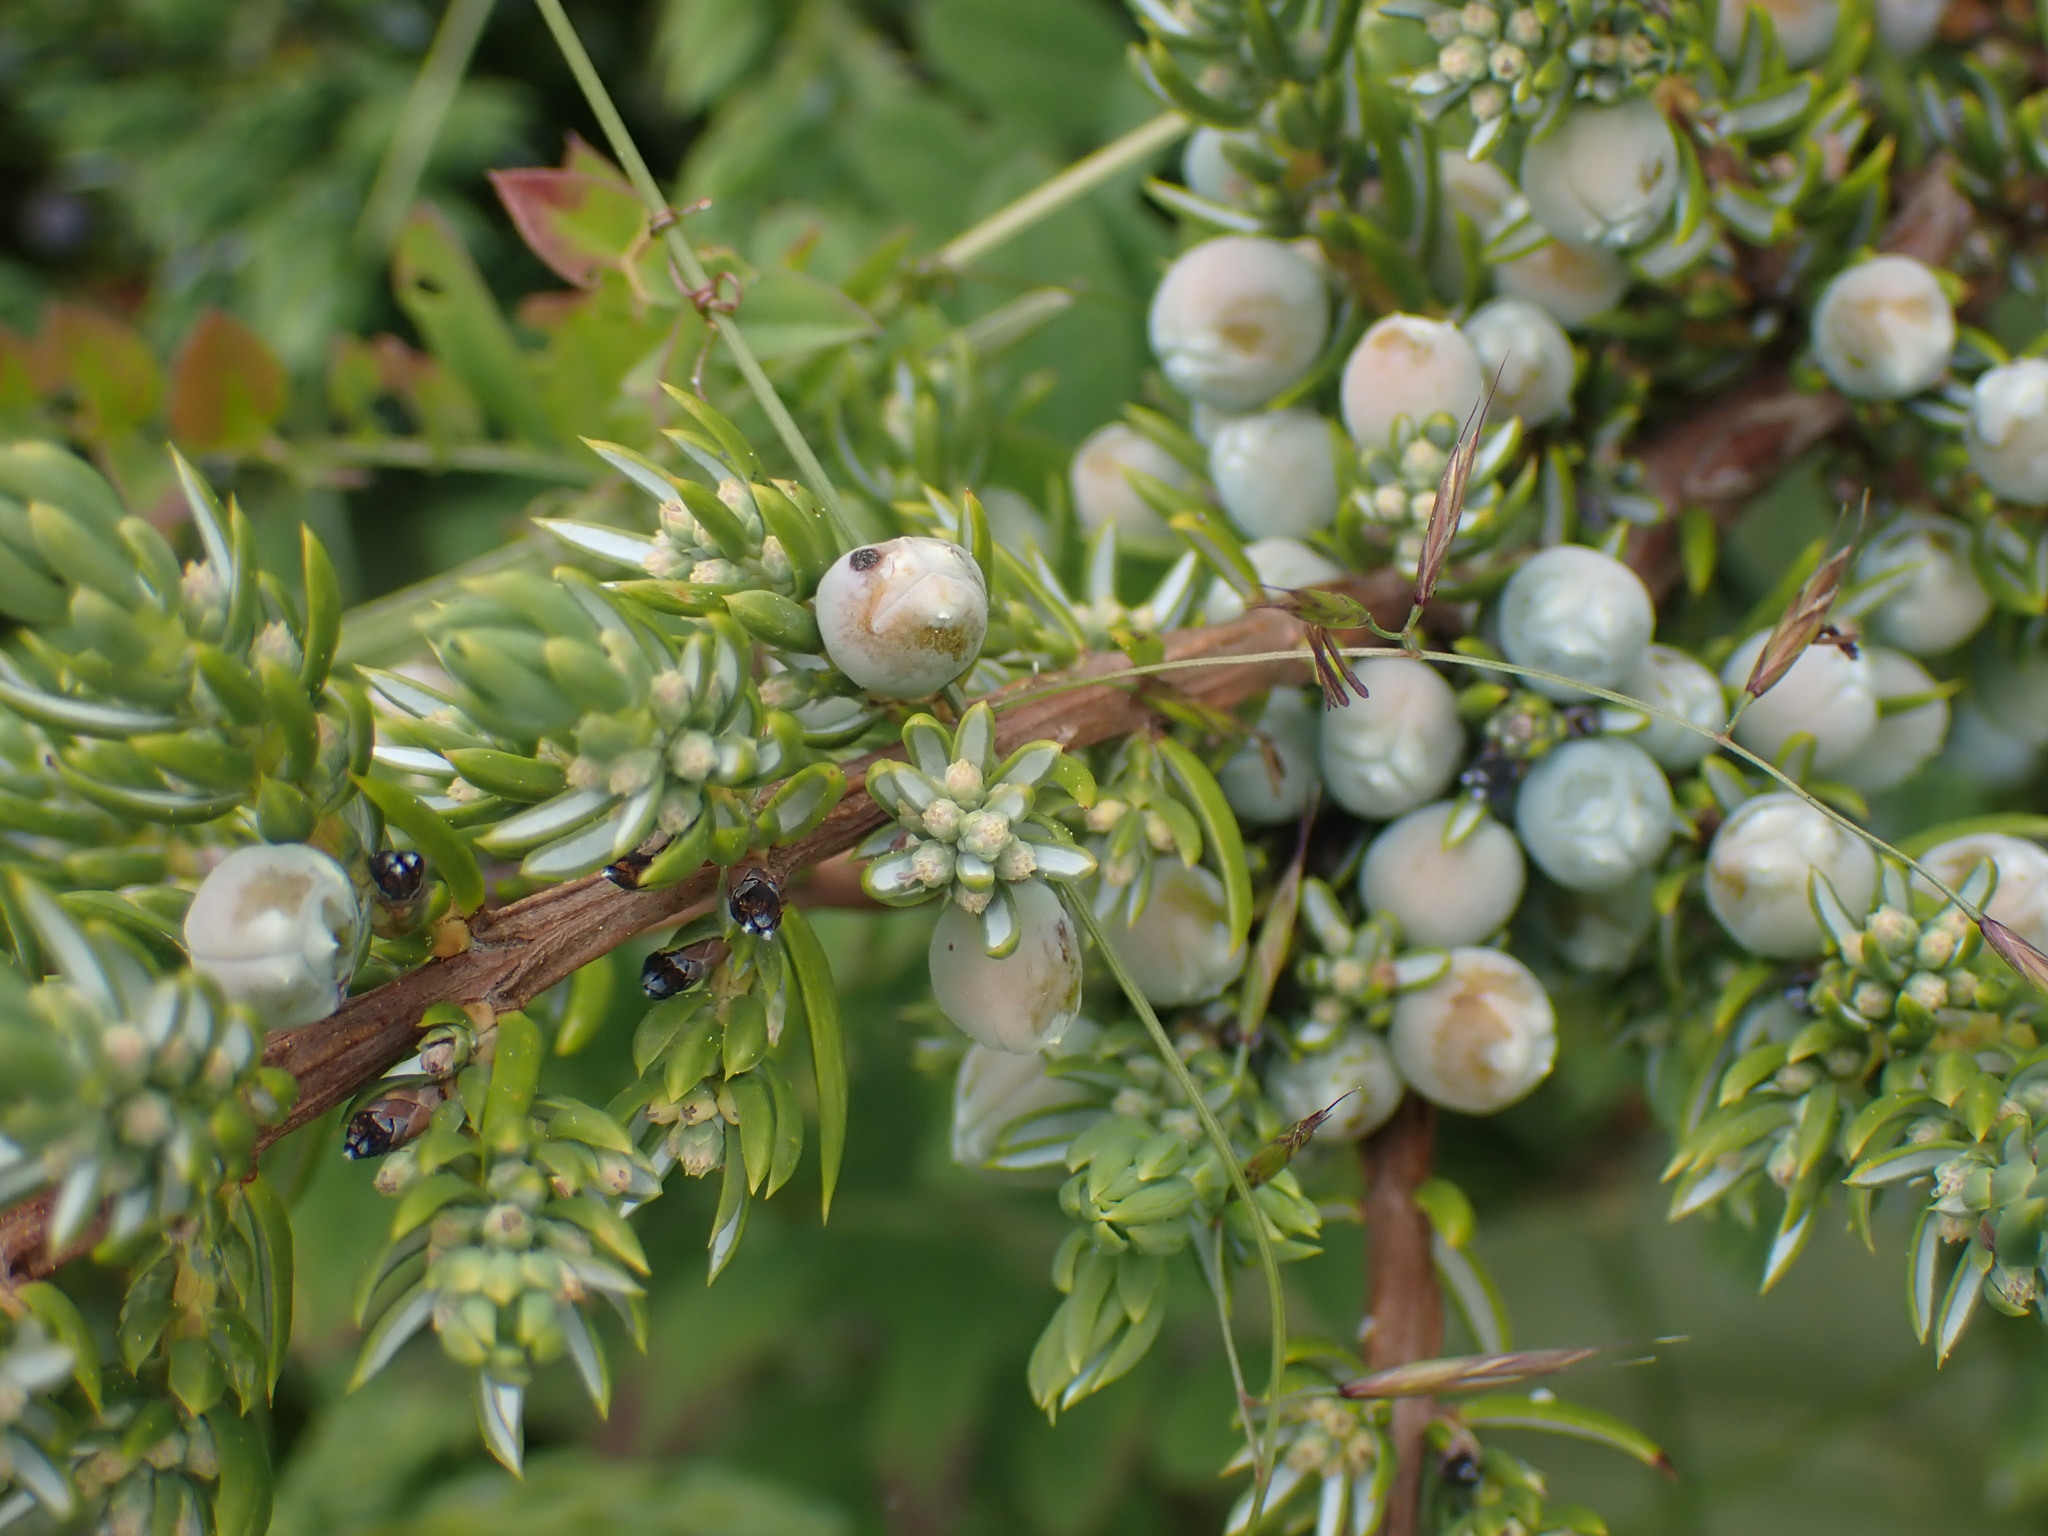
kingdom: Plantae
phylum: Tracheophyta
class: Pinopsida
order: Pinales
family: Cupressaceae
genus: Juniperus
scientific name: Juniperus communis
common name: Common juniper
